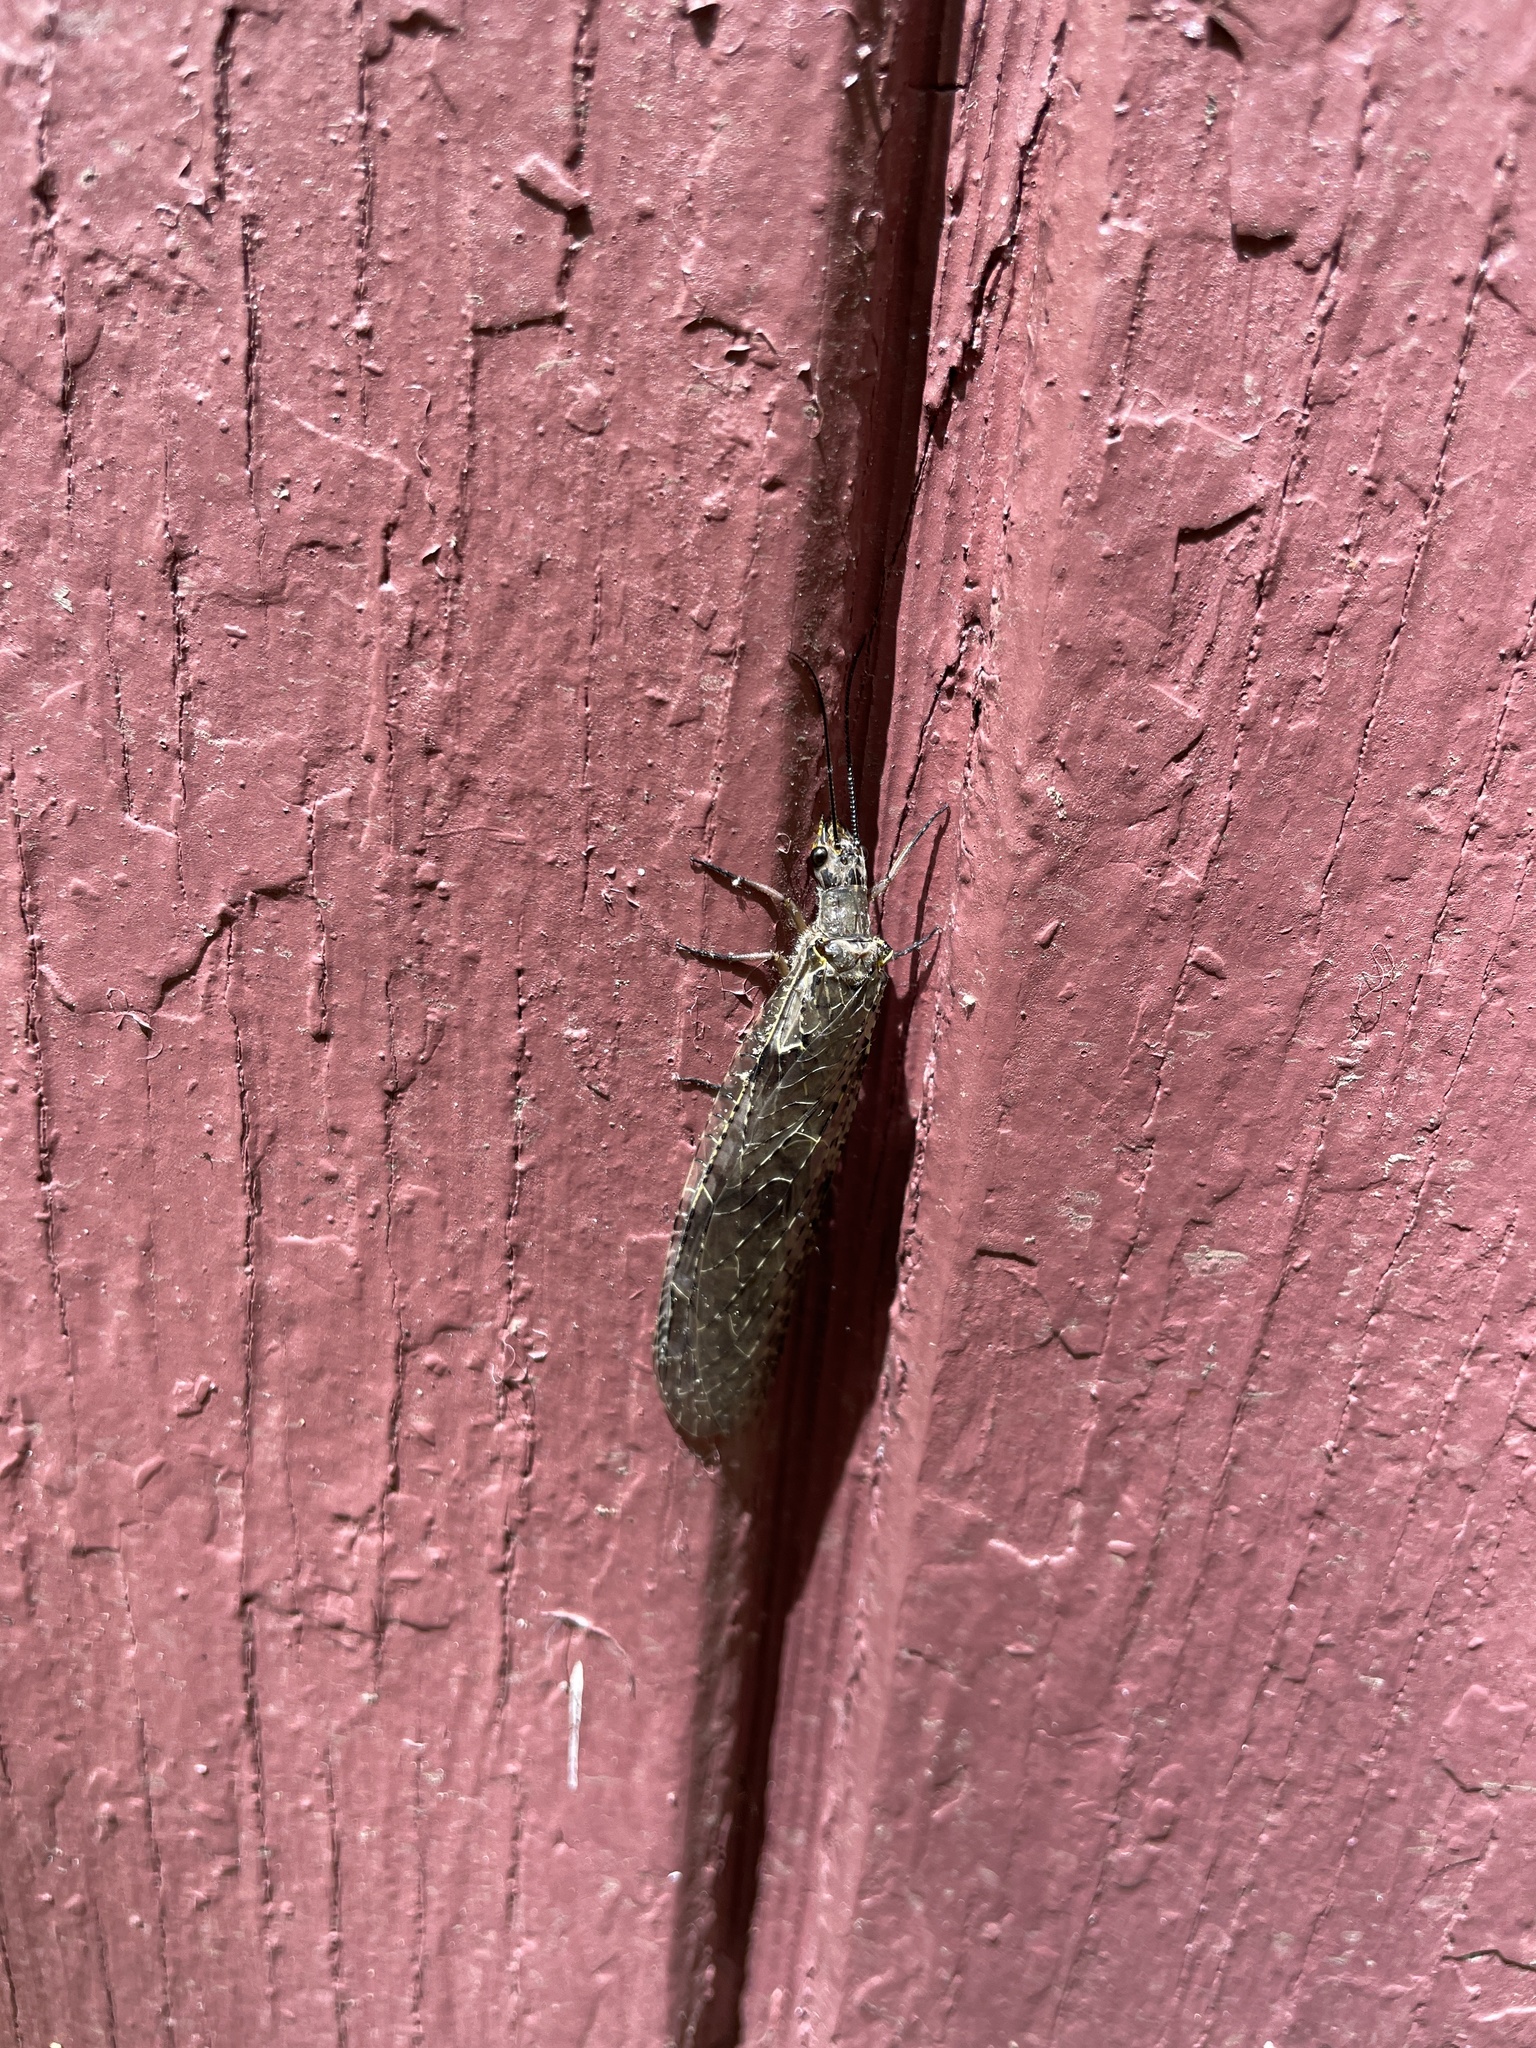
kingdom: Animalia
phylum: Arthropoda
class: Insecta
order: Megaloptera
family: Corydalidae
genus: Chauliodes
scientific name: Chauliodes rastricornis
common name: Spring fishfly
